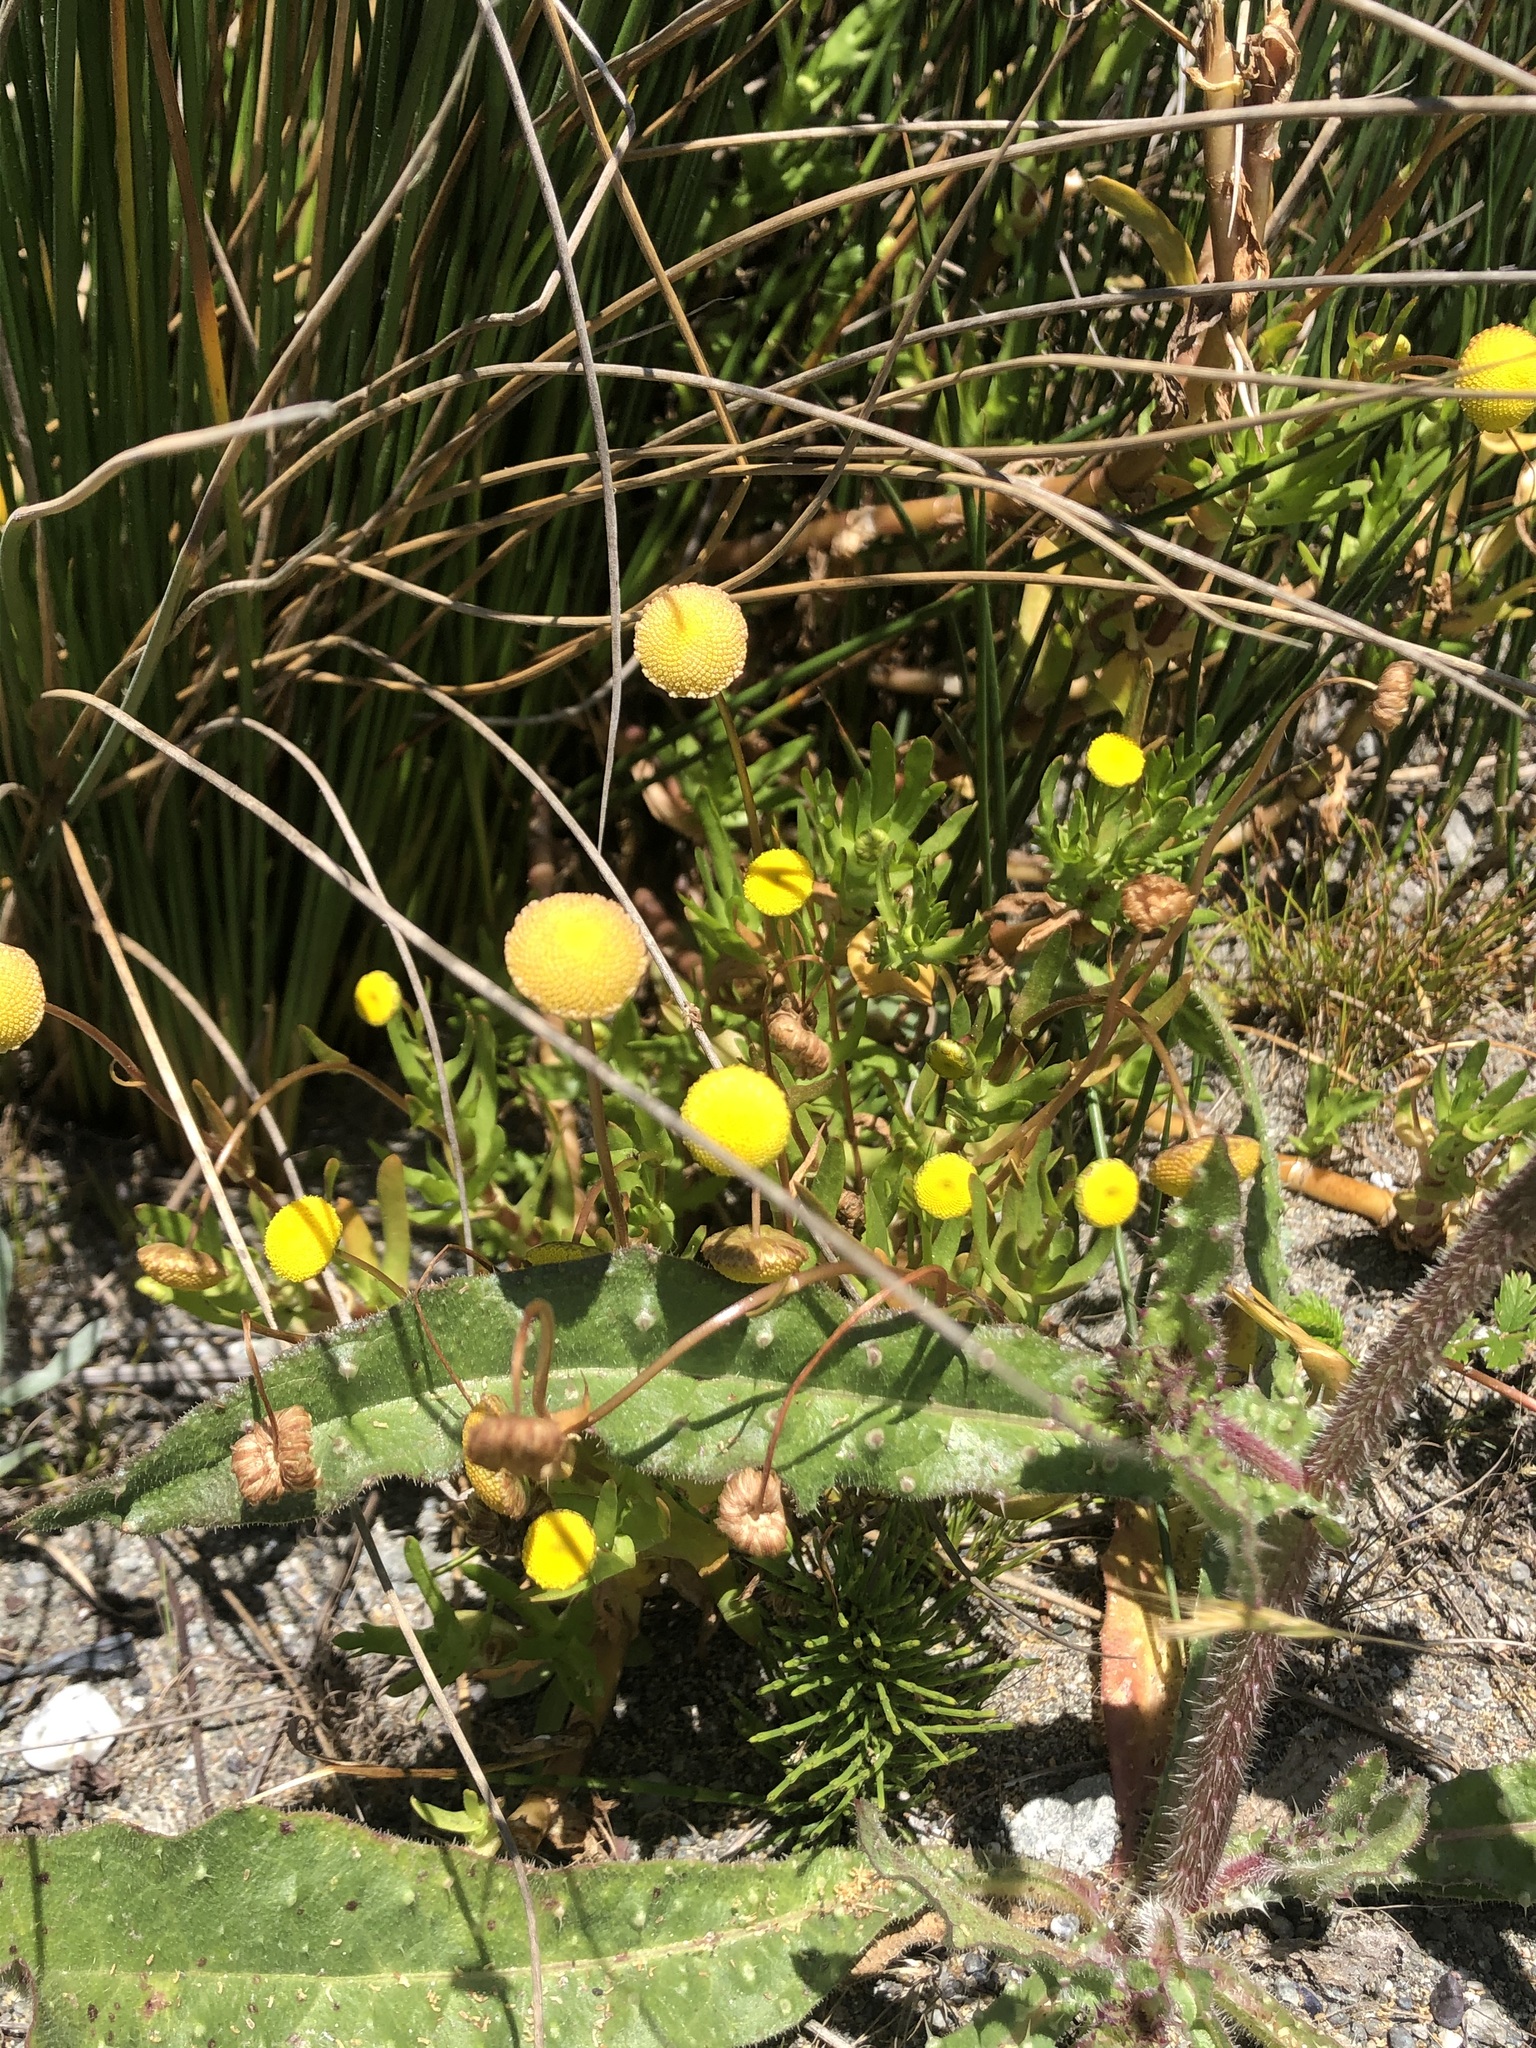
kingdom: Plantae
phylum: Tracheophyta
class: Magnoliopsida
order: Asterales
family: Asteraceae
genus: Cotula
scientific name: Cotula coronopifolia
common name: Buttonweed
